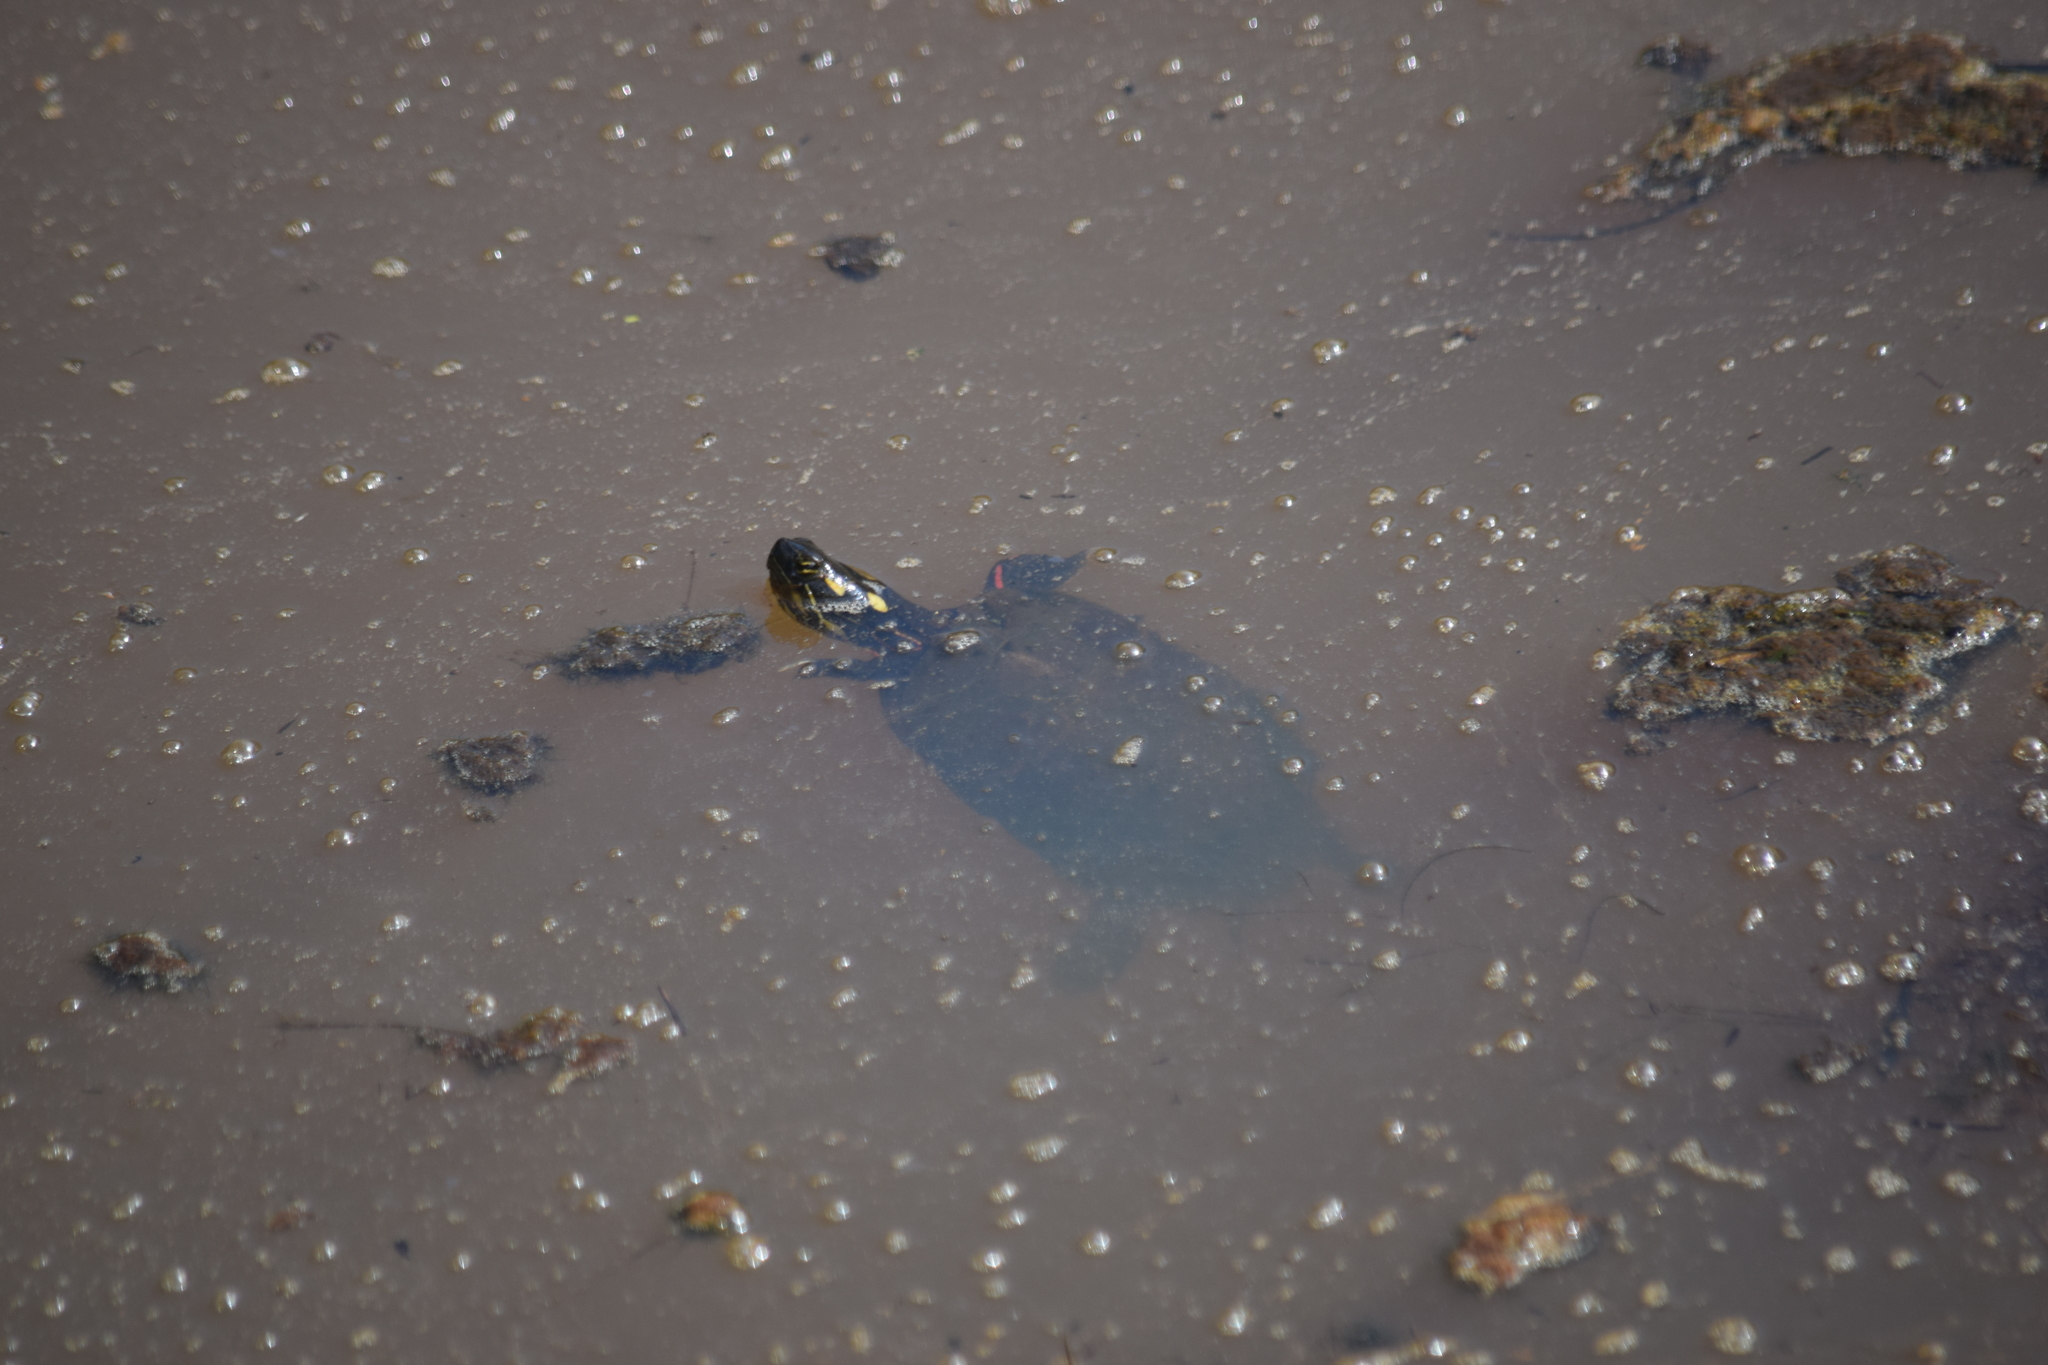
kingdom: Animalia
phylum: Chordata
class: Testudines
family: Emydidae
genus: Chrysemys
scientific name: Chrysemys picta
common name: Painted turtle
